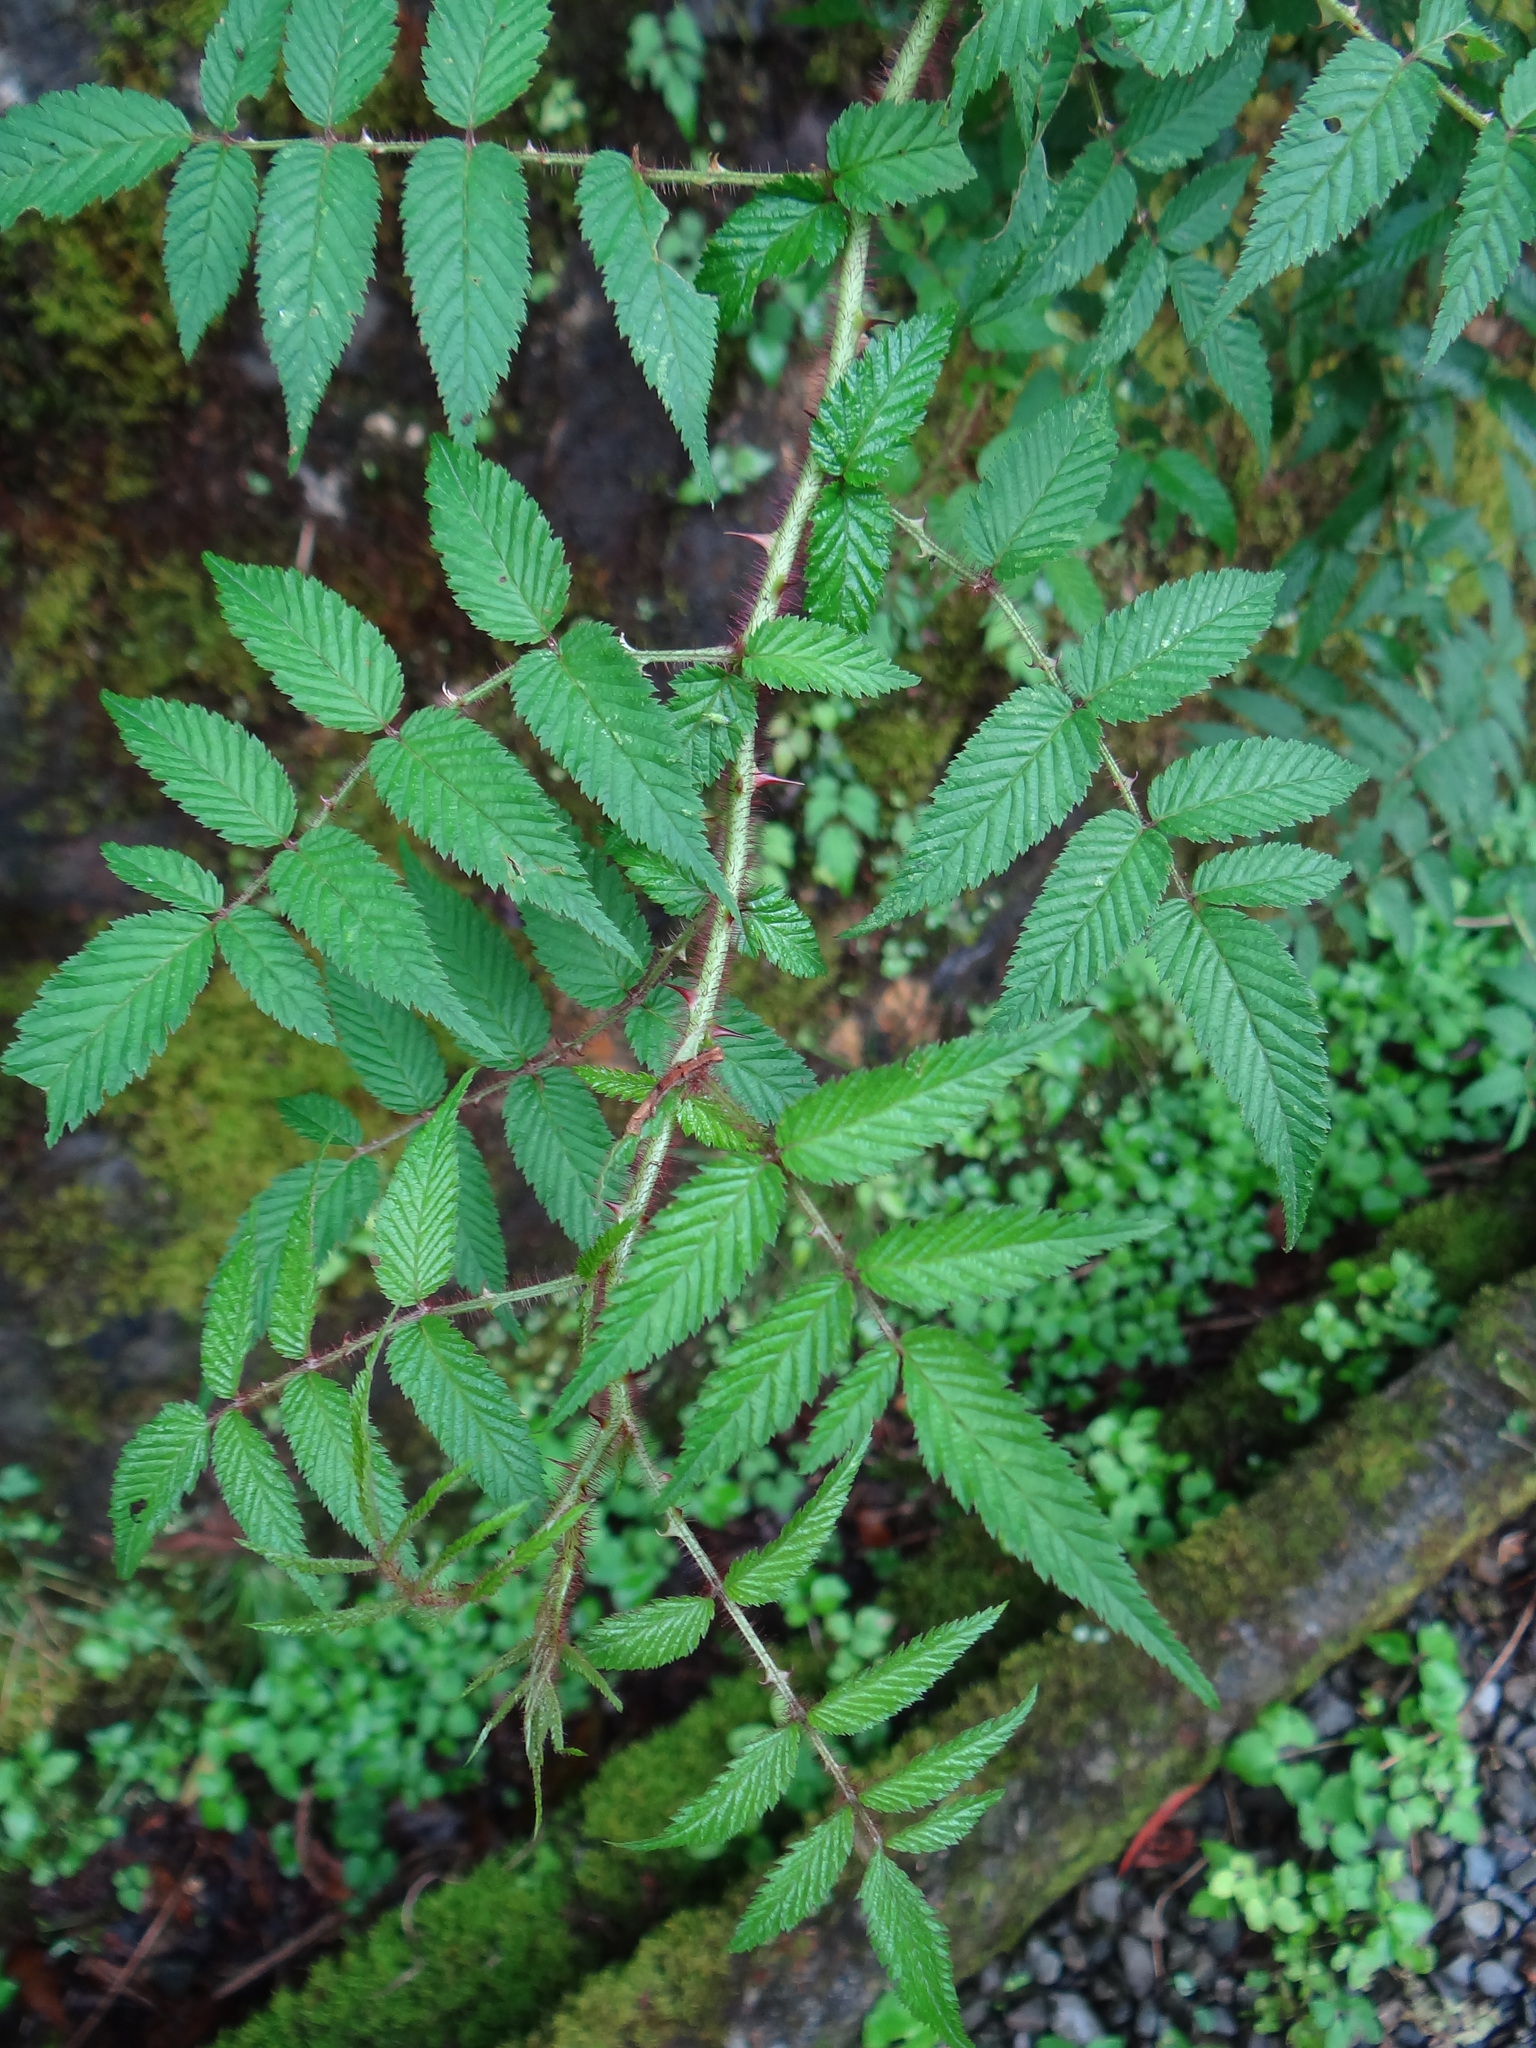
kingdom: Plantae
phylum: Tracheophyta
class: Magnoliopsida
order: Rosales
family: Rosaceae
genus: Rubus
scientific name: Rubus croceacanthus
